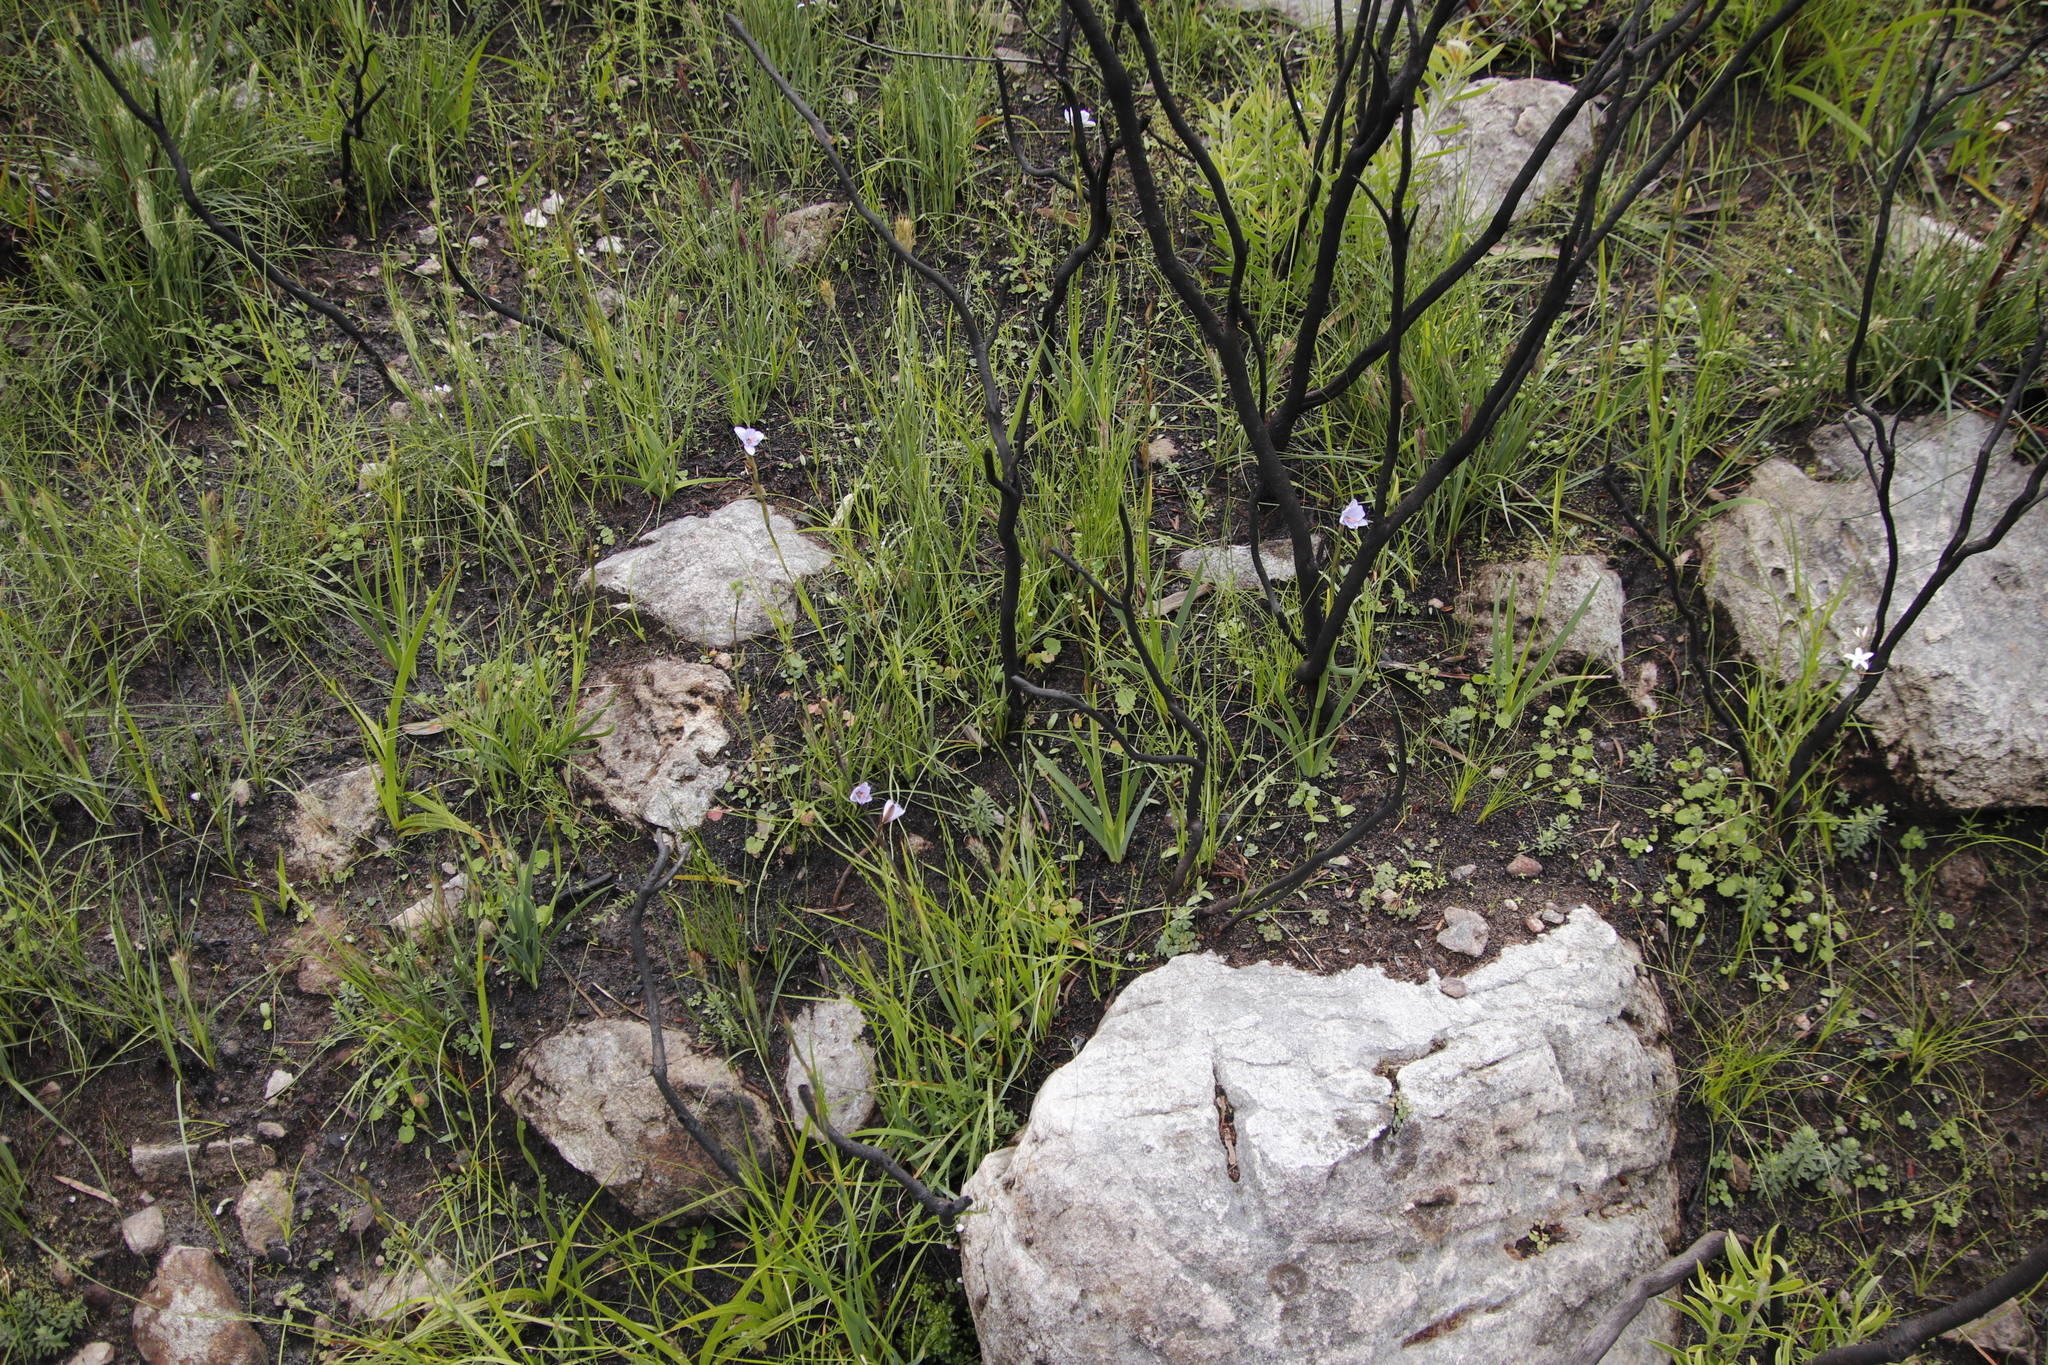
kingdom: Plantae
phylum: Tracheophyta
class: Liliopsida
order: Asparagales
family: Iridaceae
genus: Aristea
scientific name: Aristea spiralis
